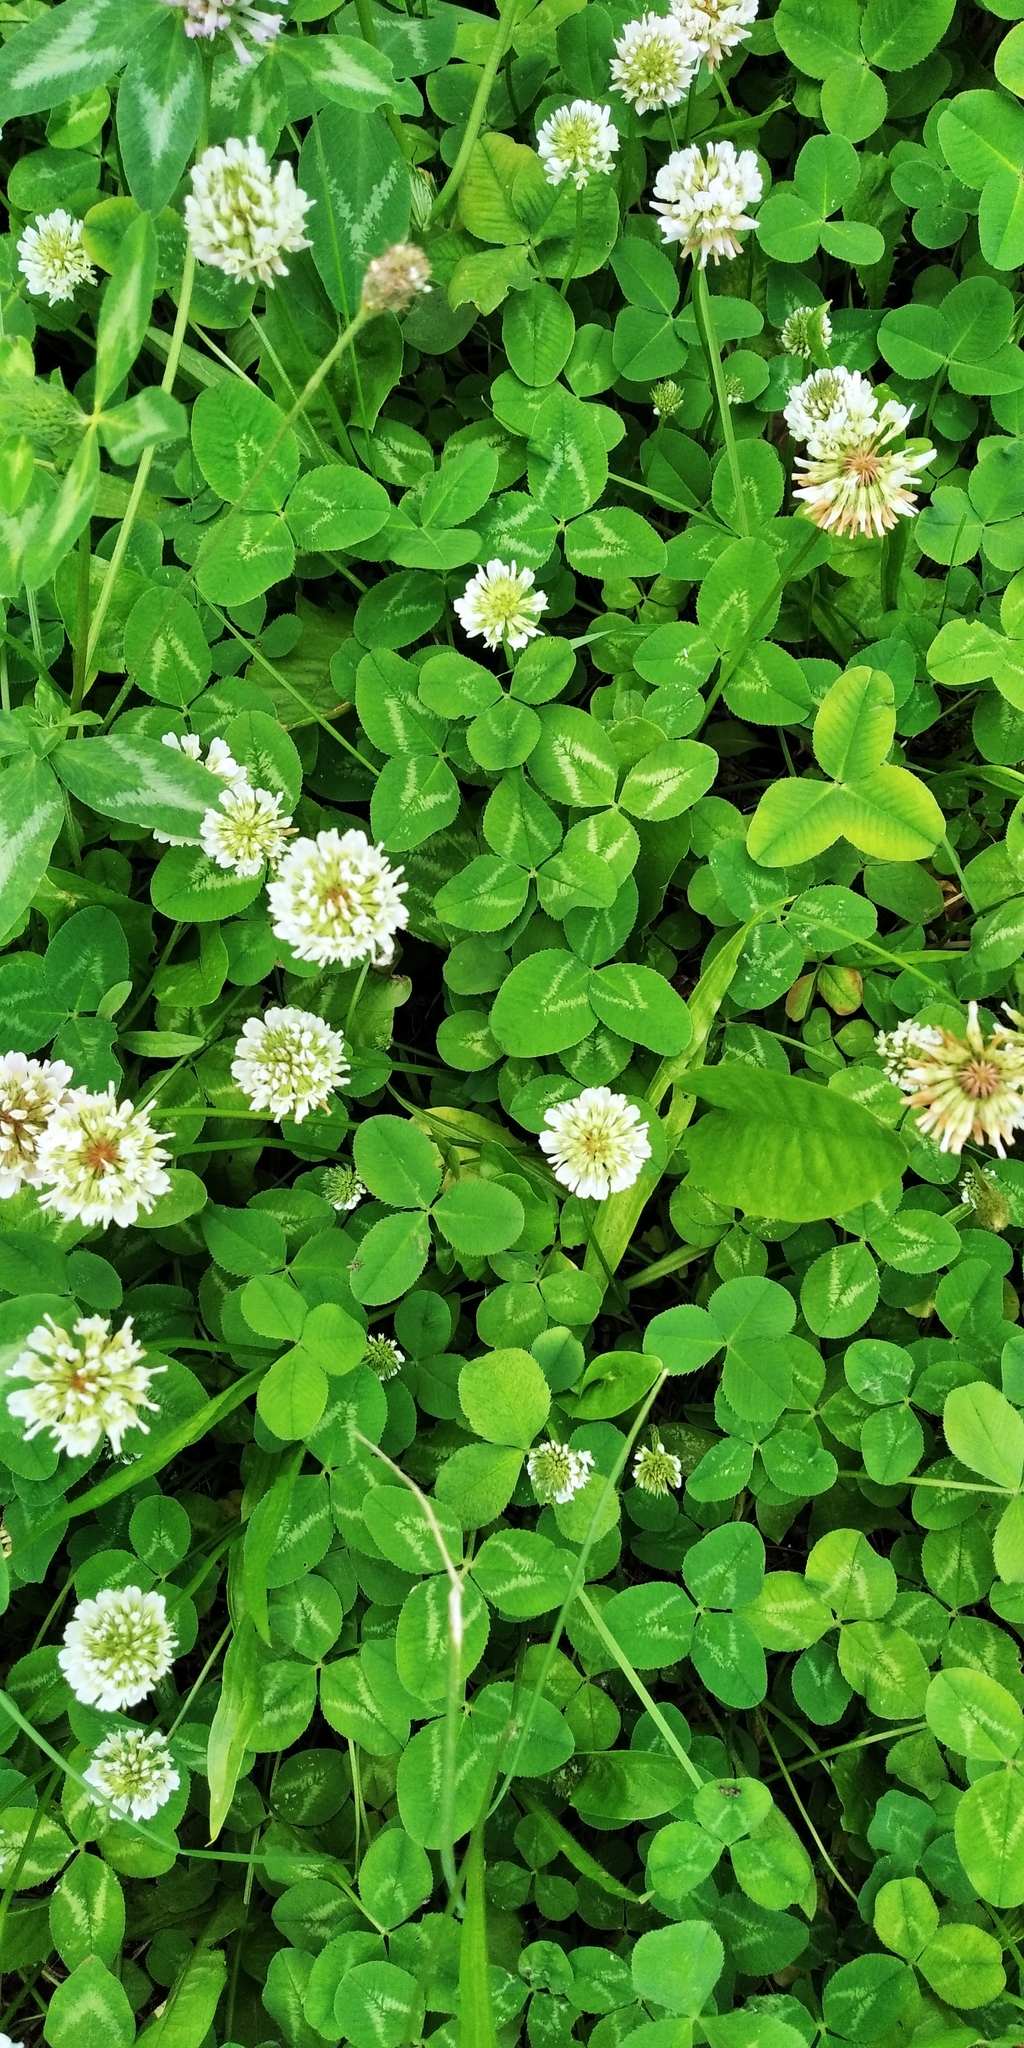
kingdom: Plantae
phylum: Tracheophyta
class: Magnoliopsida
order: Fabales
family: Fabaceae
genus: Trifolium
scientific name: Trifolium repens
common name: White clover
